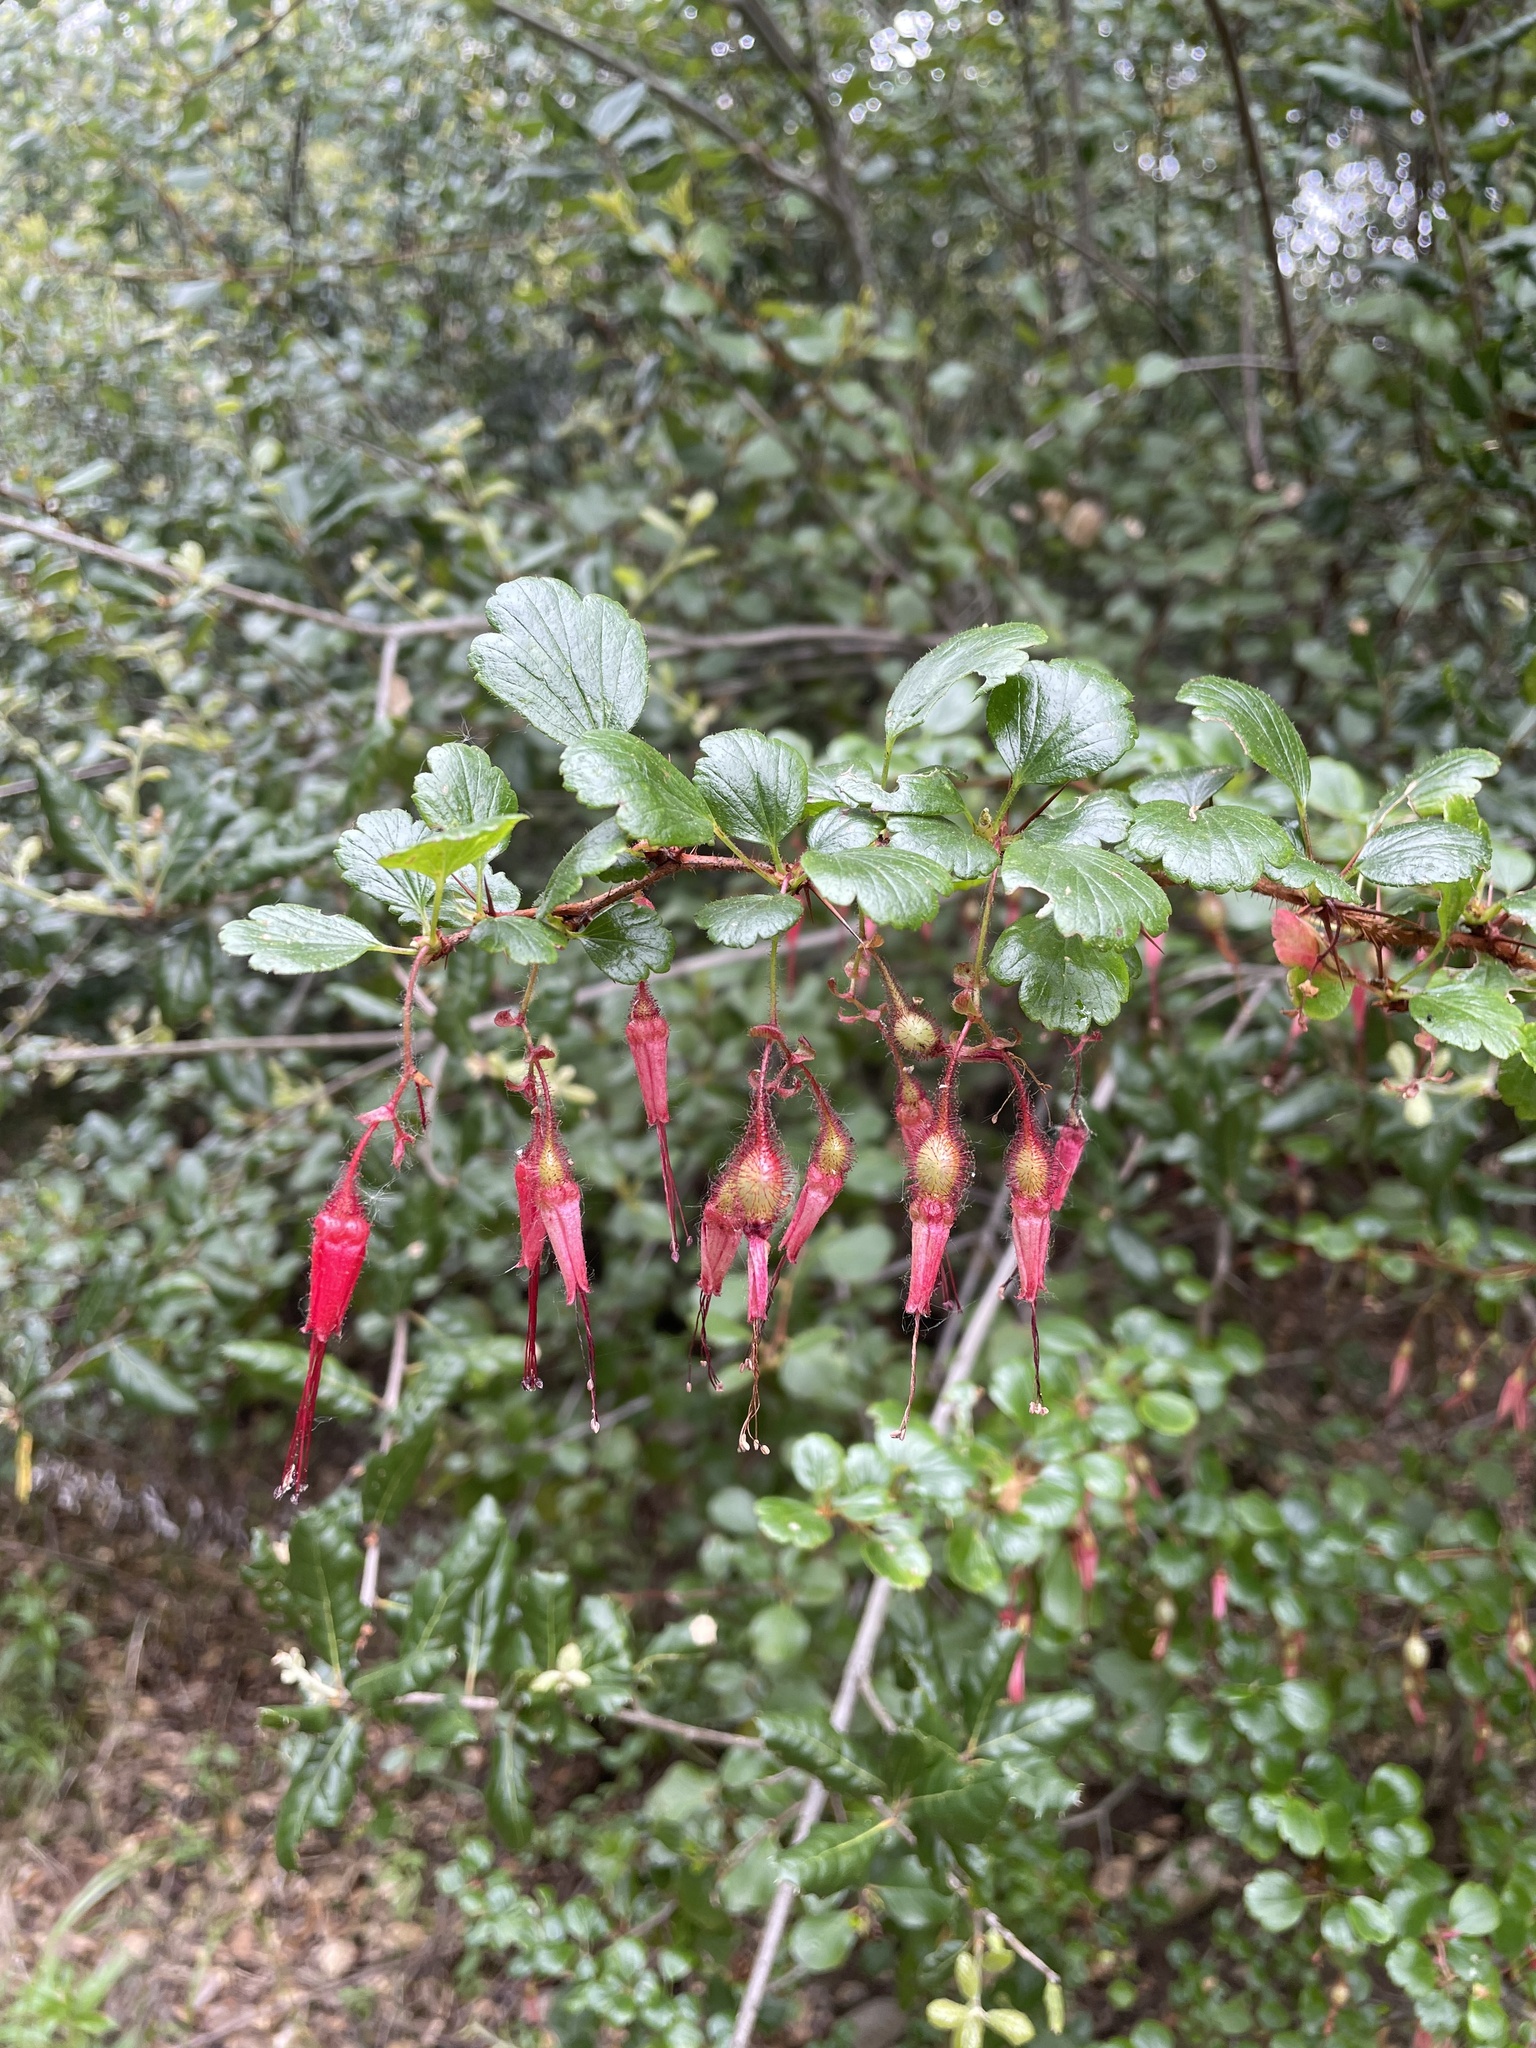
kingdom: Plantae
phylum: Tracheophyta
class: Magnoliopsida
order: Saxifragales
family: Grossulariaceae
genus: Ribes
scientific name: Ribes speciosum
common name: Fuchsia-flower gooseberry
